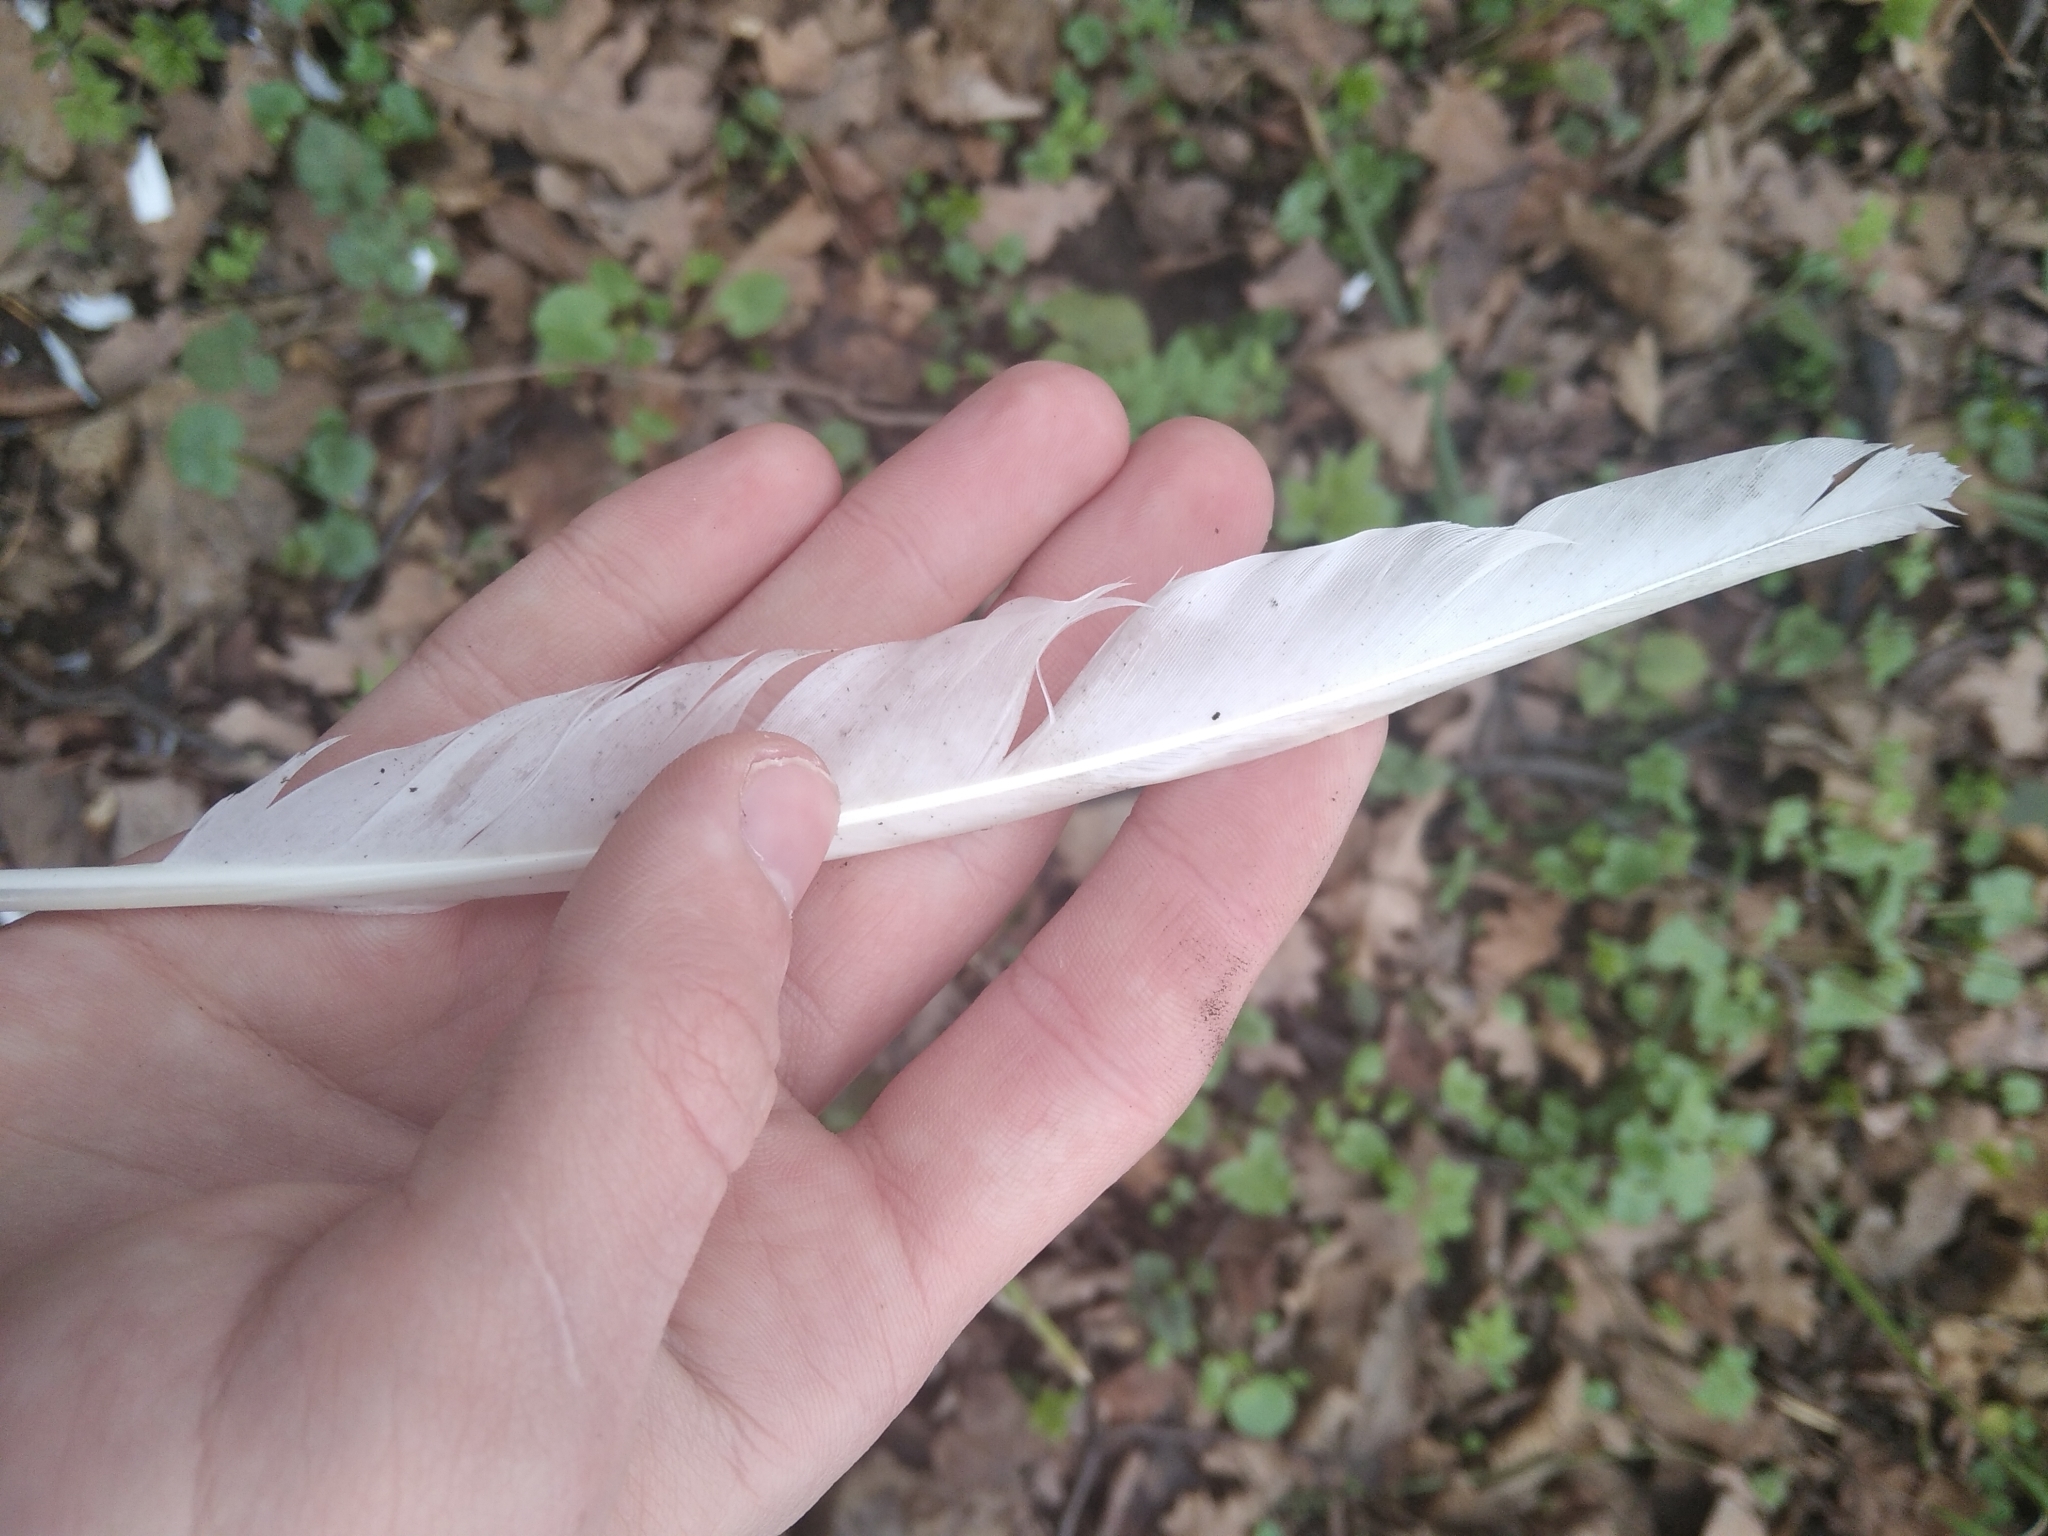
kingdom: Animalia
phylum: Chordata
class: Aves
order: Columbiformes
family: Columbidae
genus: Columba
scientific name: Columba livia
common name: Rock pigeon
